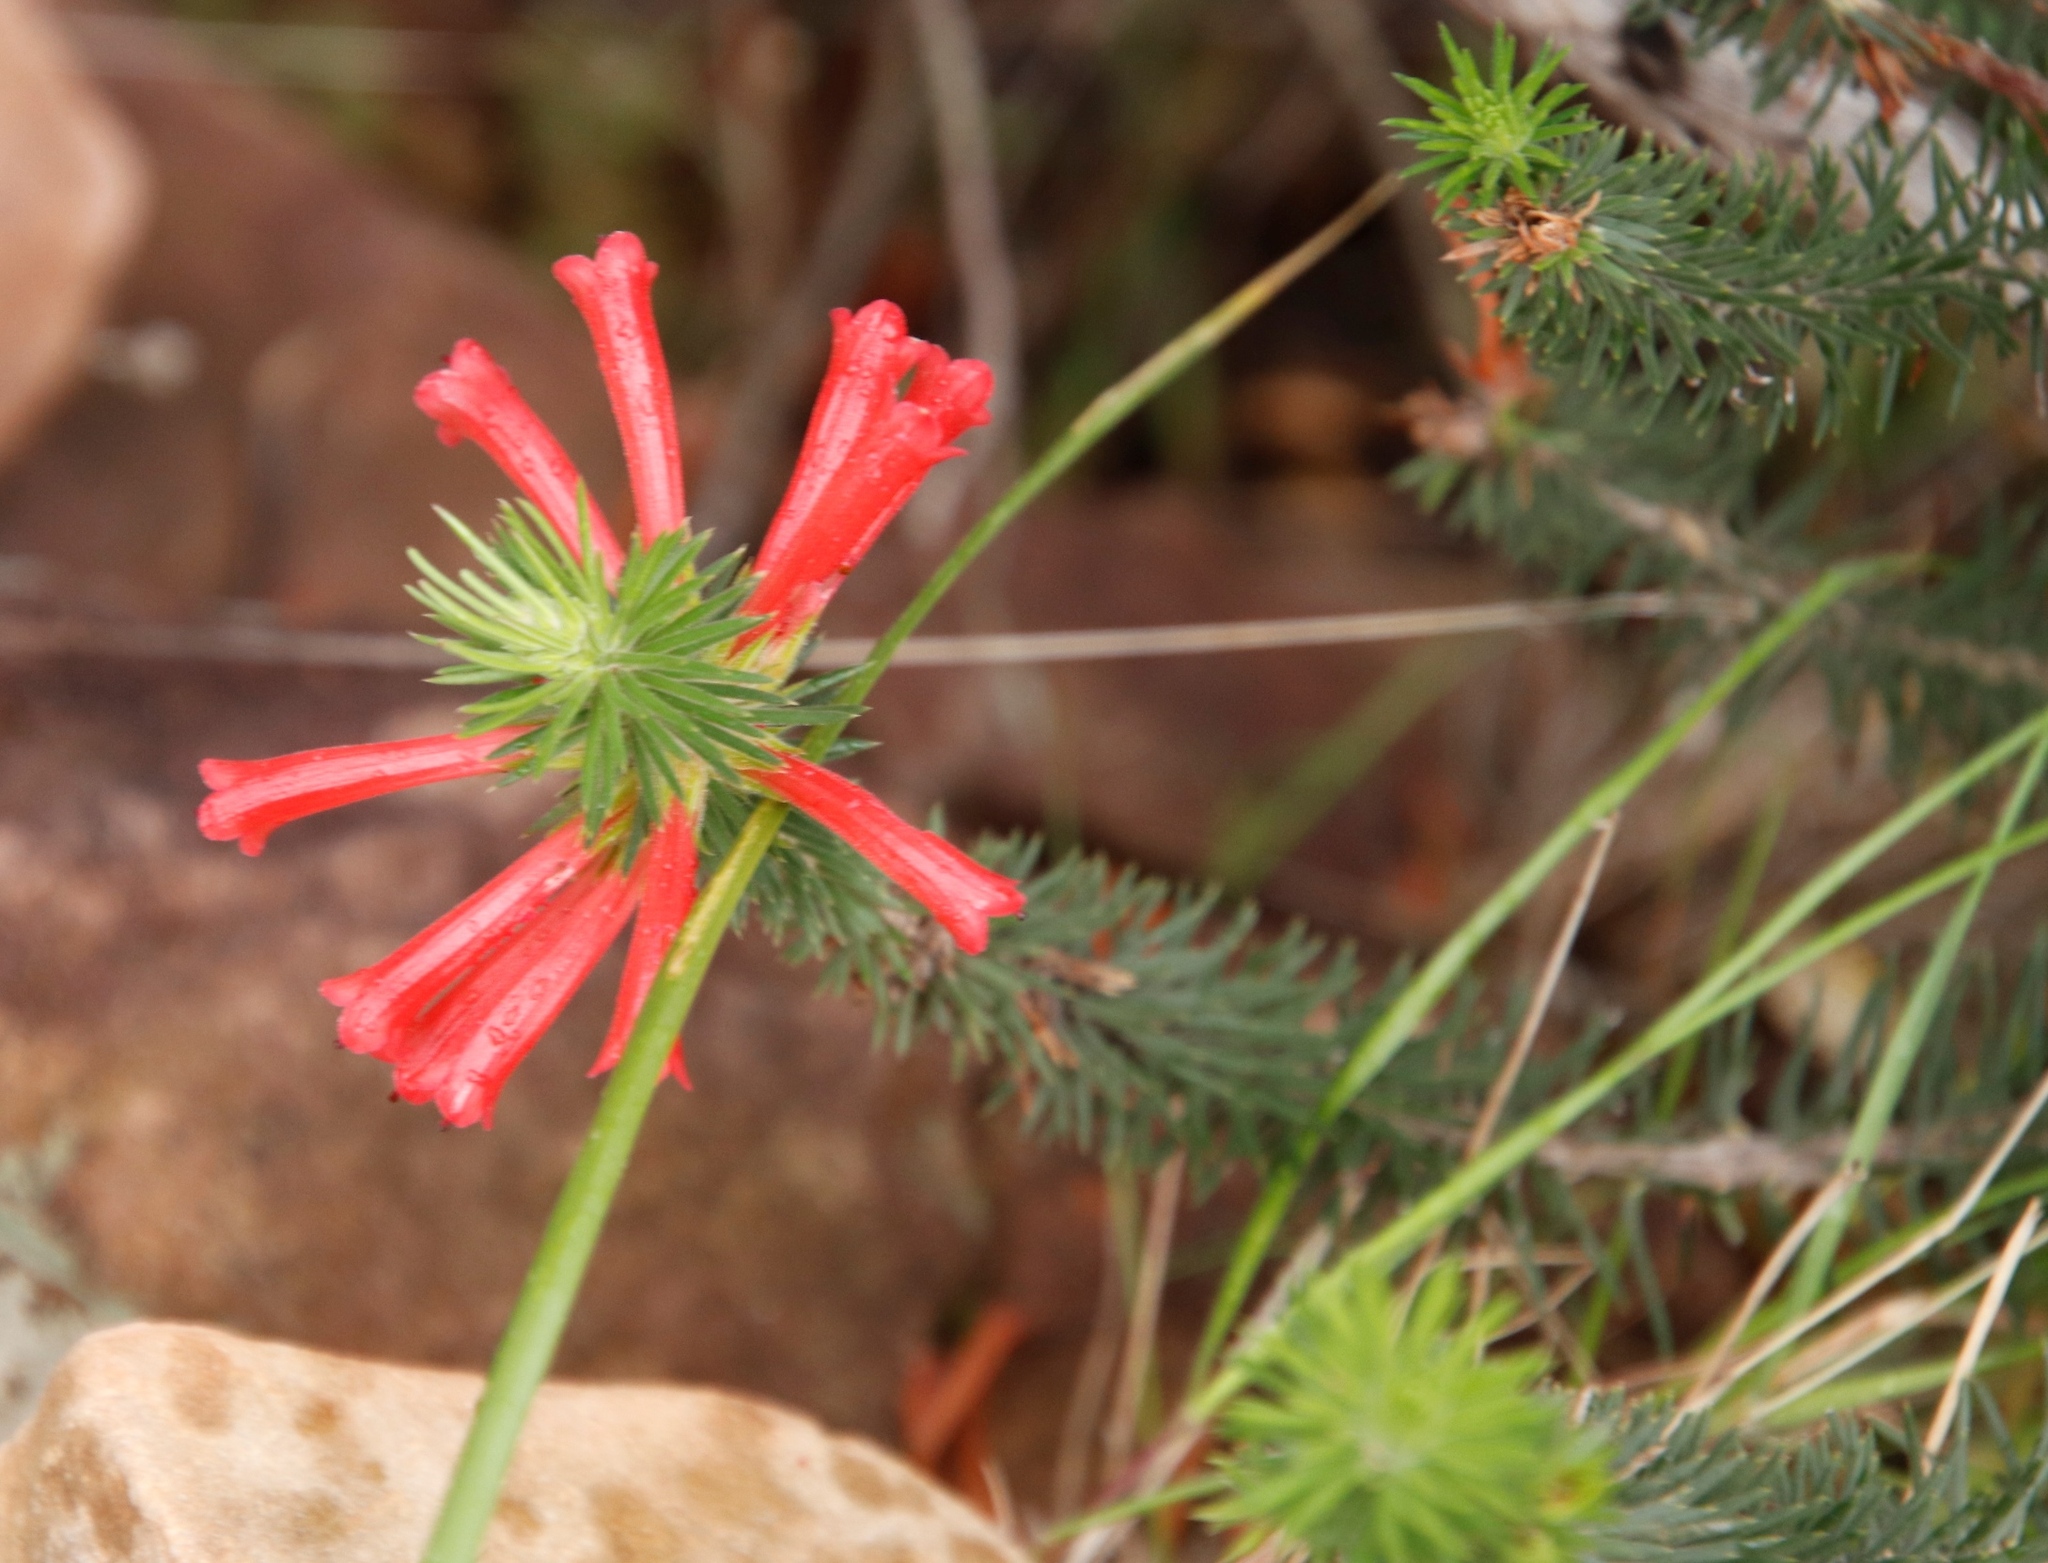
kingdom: Plantae
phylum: Tracheophyta
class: Magnoliopsida
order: Ericales
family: Ericaceae
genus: Erica
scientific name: Erica abietina
